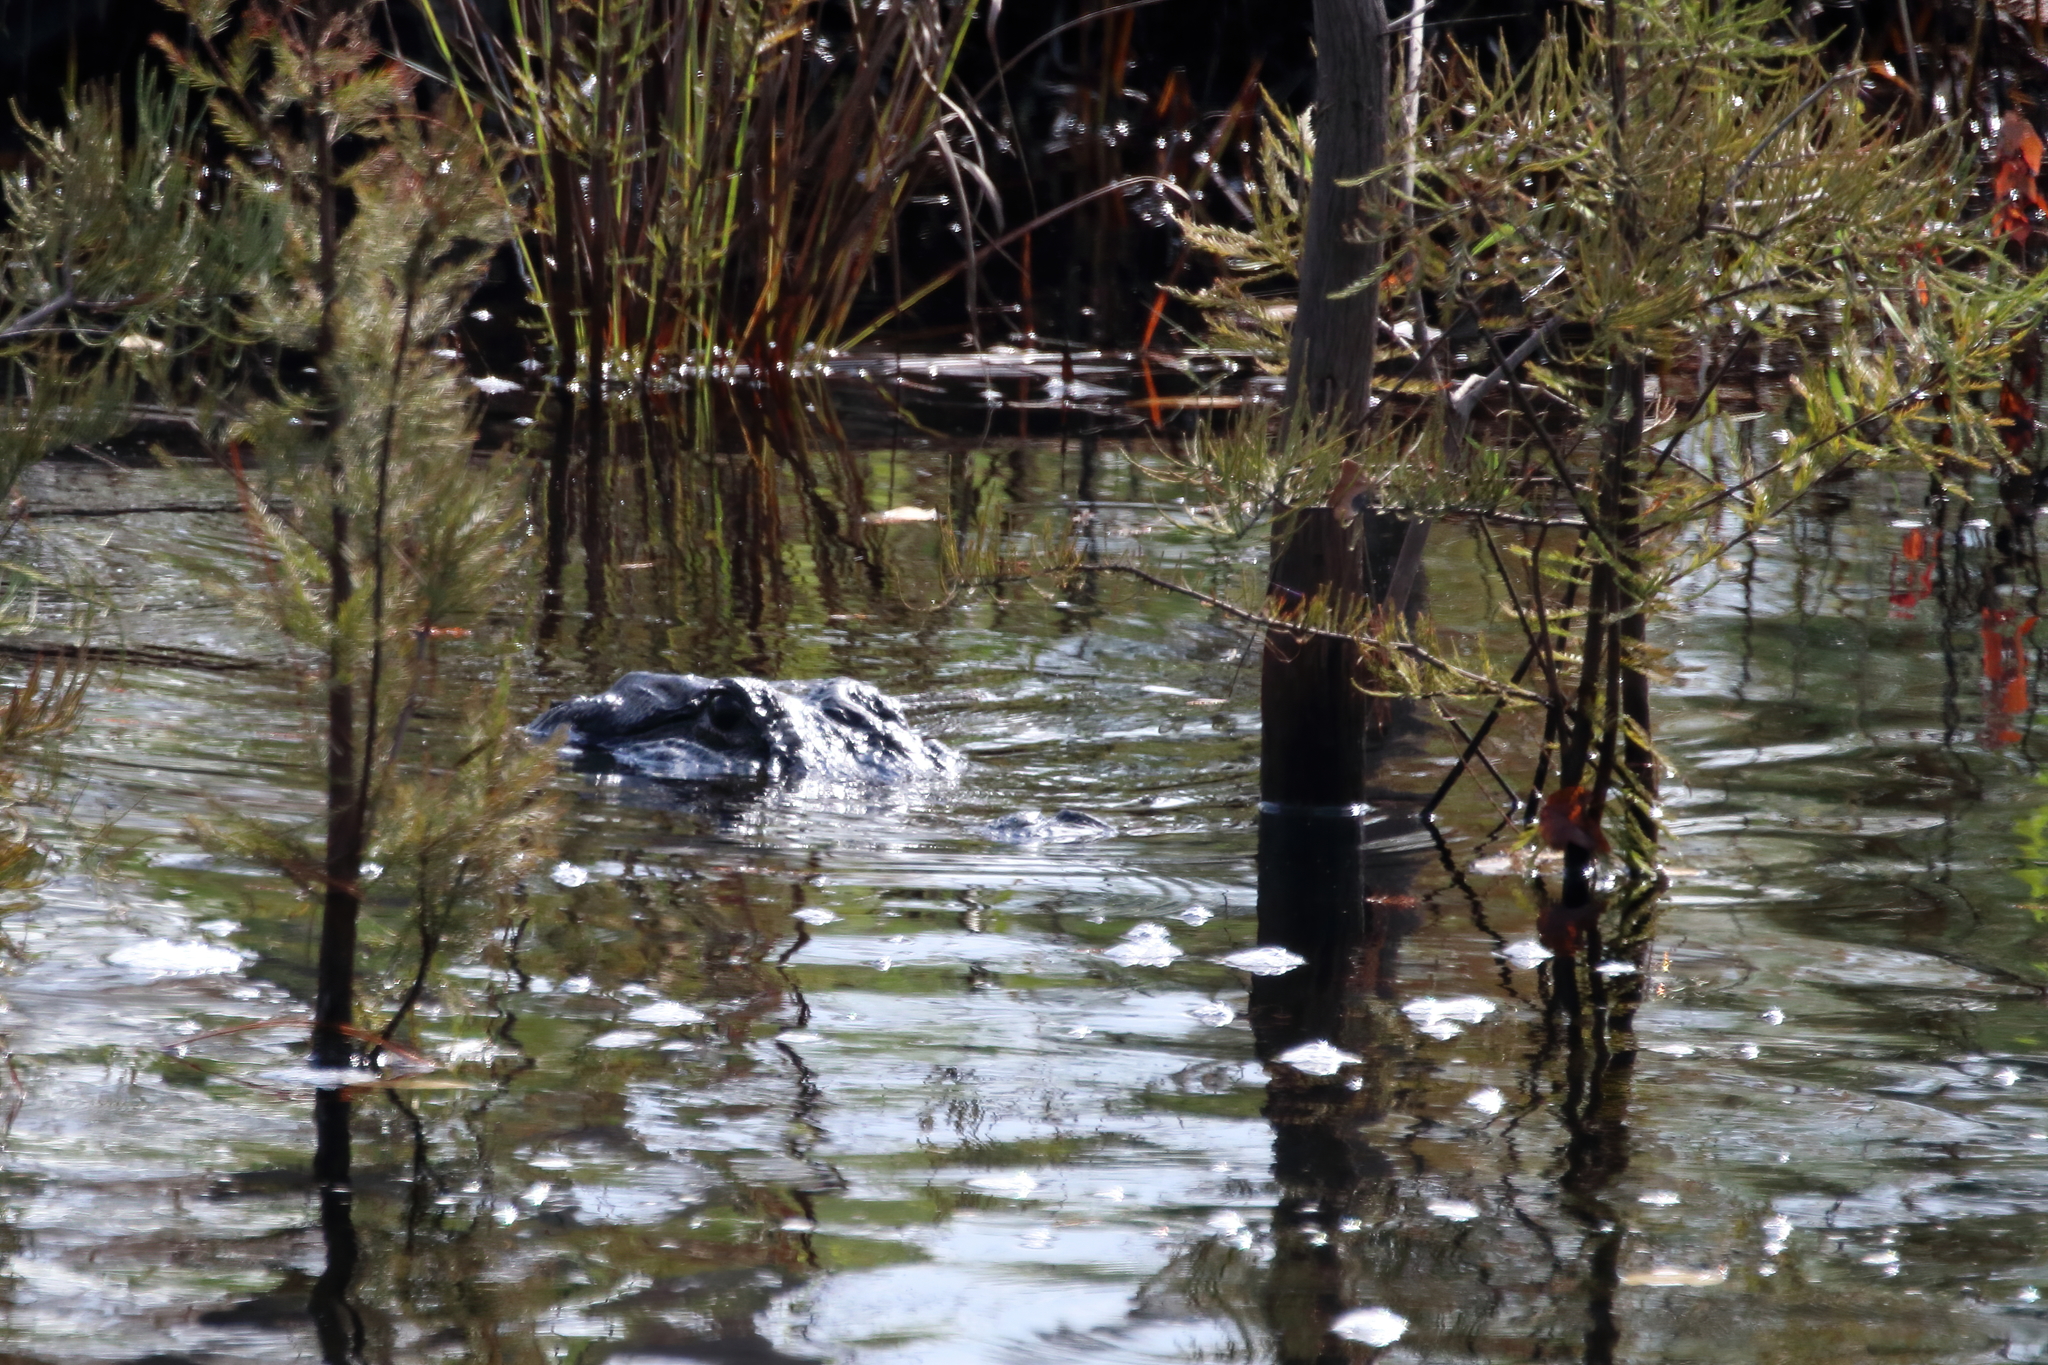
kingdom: Animalia
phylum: Chordata
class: Crocodylia
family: Alligatoridae
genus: Alligator
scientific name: Alligator mississippiensis
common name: American alligator
